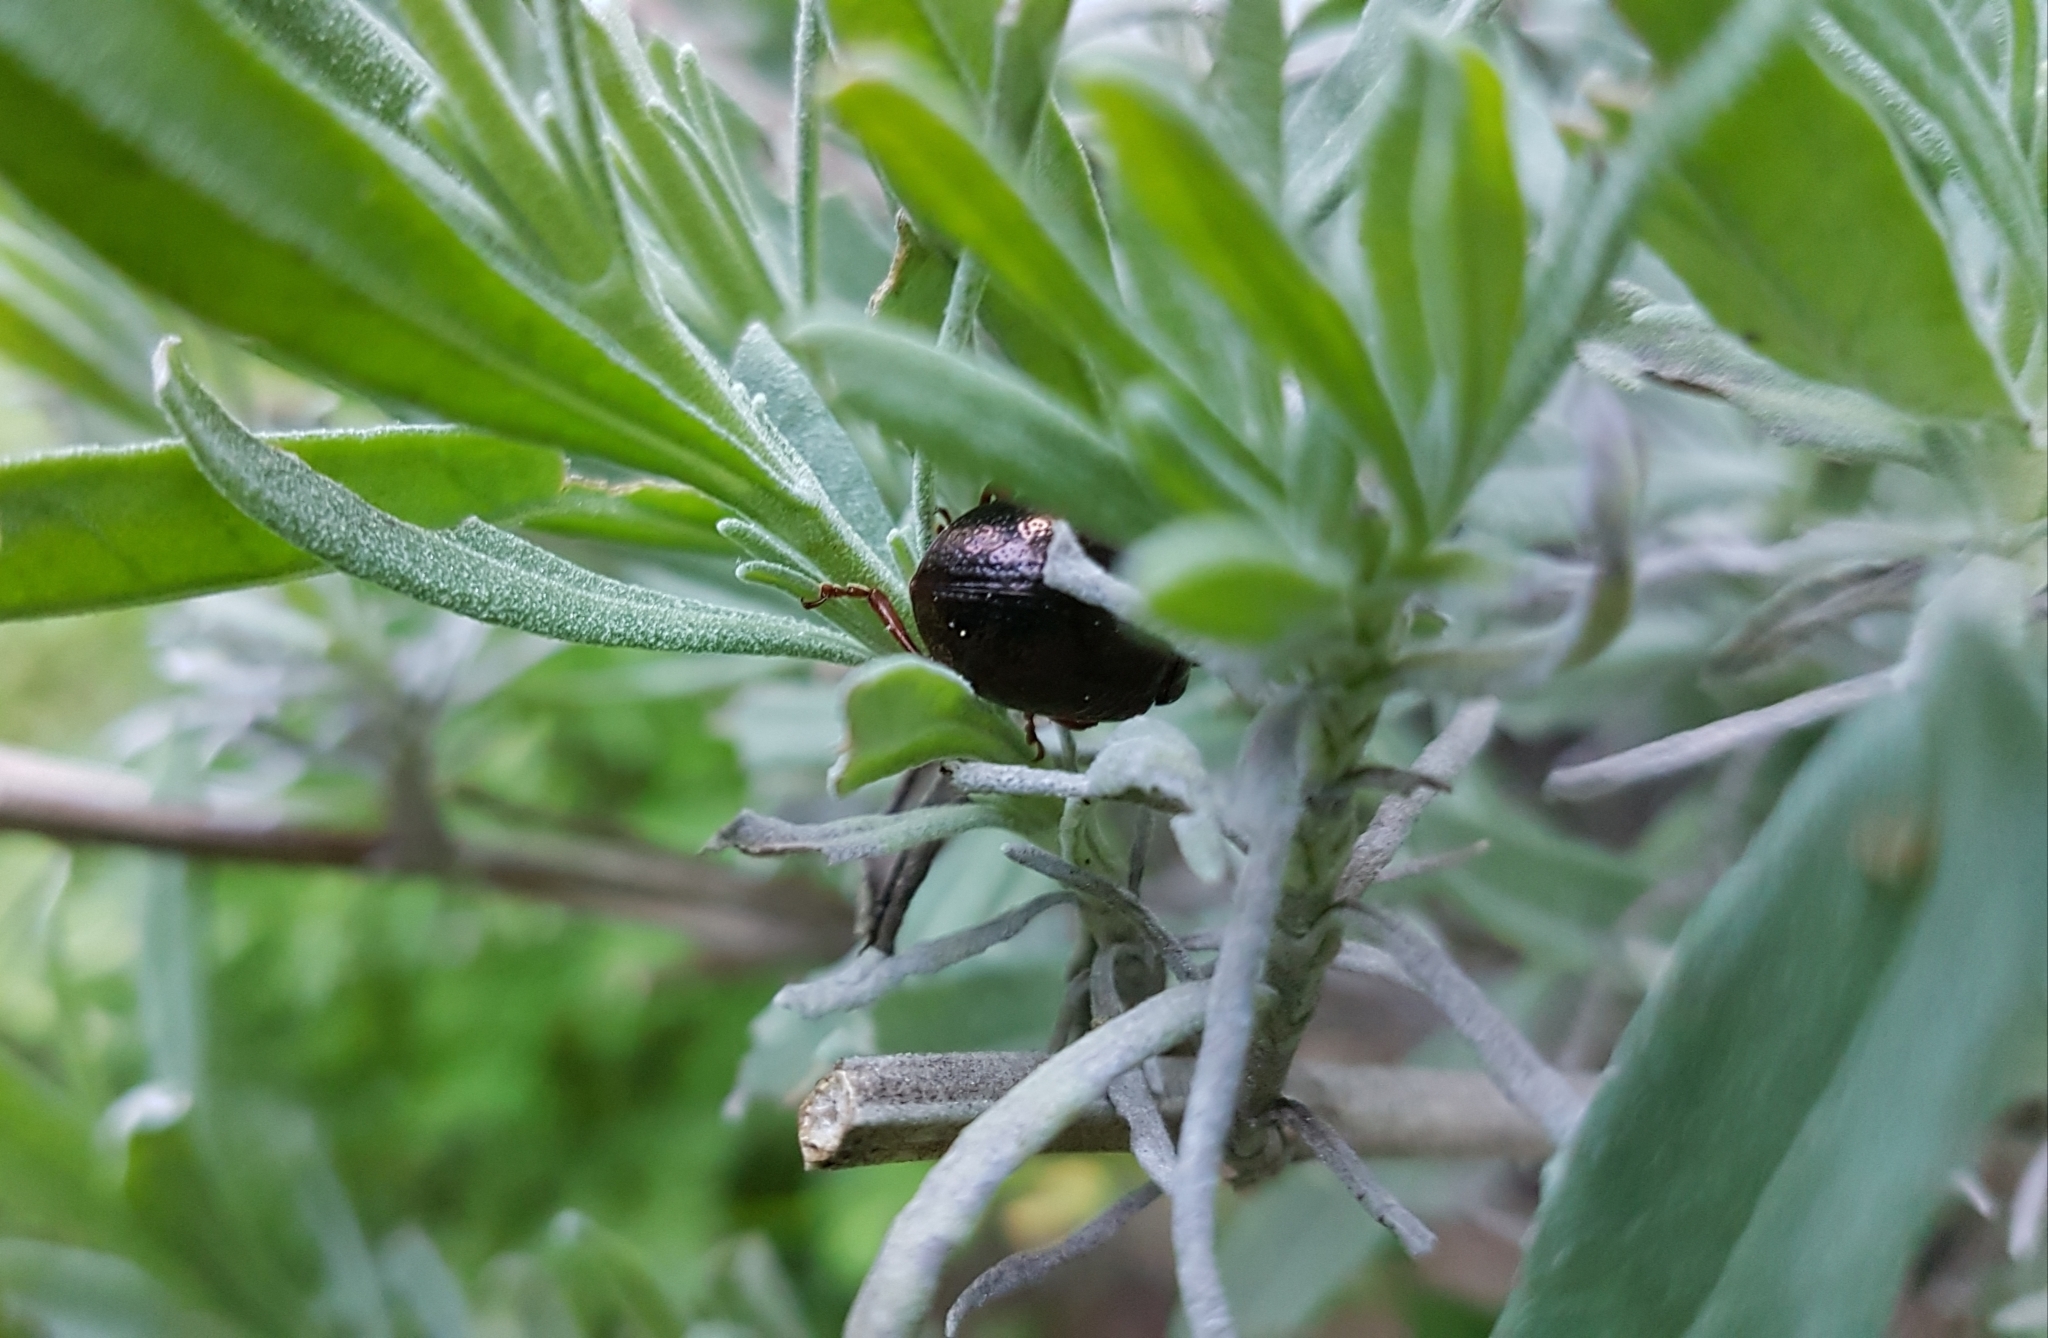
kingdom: Animalia
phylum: Arthropoda
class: Insecta
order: Coleoptera
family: Chrysomelidae
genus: Chrysolina
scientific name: Chrysolina bankii
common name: Leaf beetle
